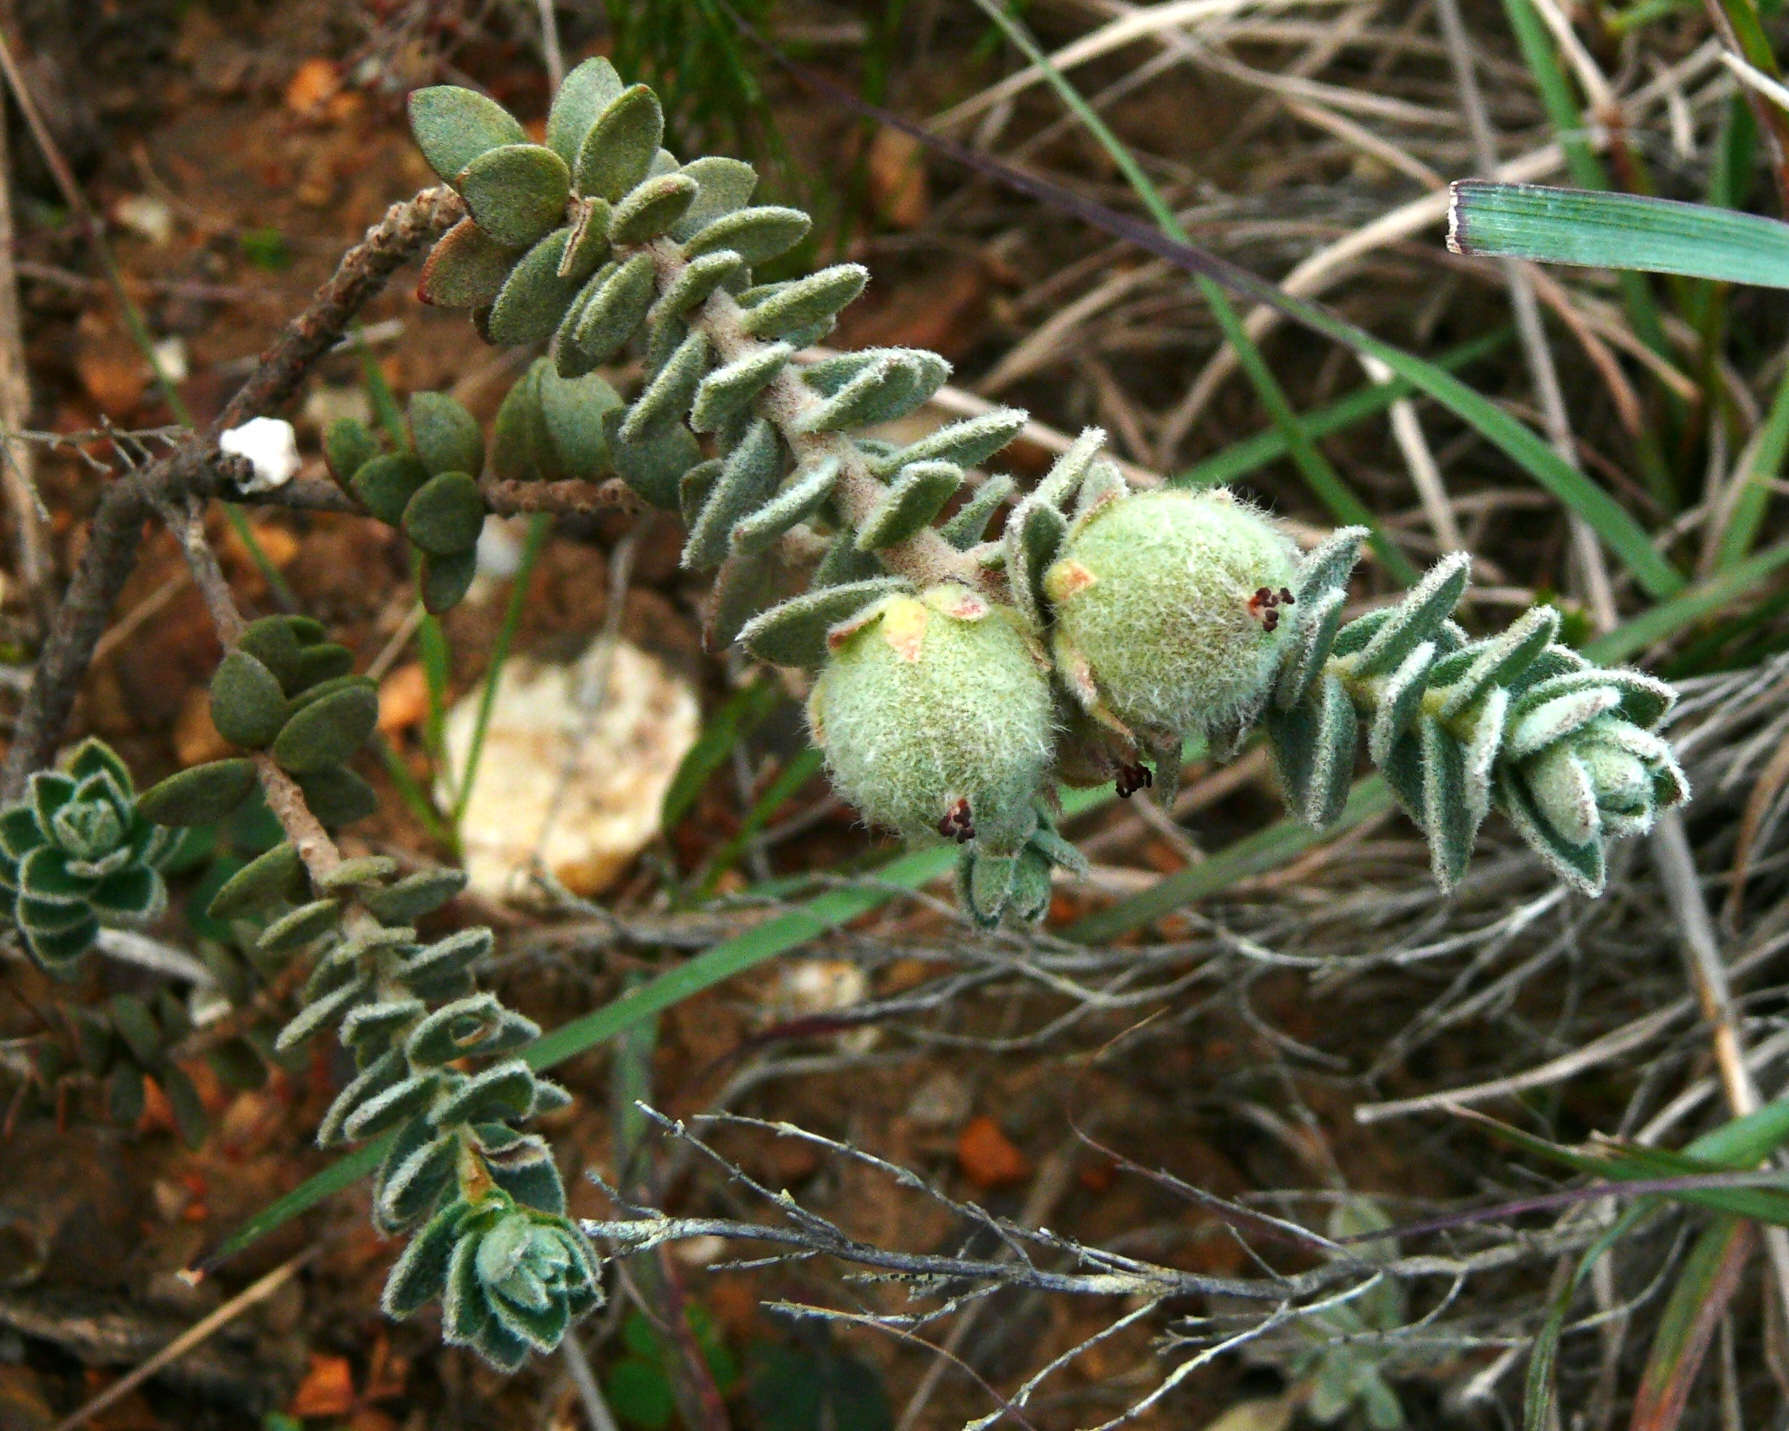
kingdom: Plantae
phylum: Tracheophyta
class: Magnoliopsida
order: Malpighiales
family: Peraceae
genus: Clutia
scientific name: Clutia tomentosa
